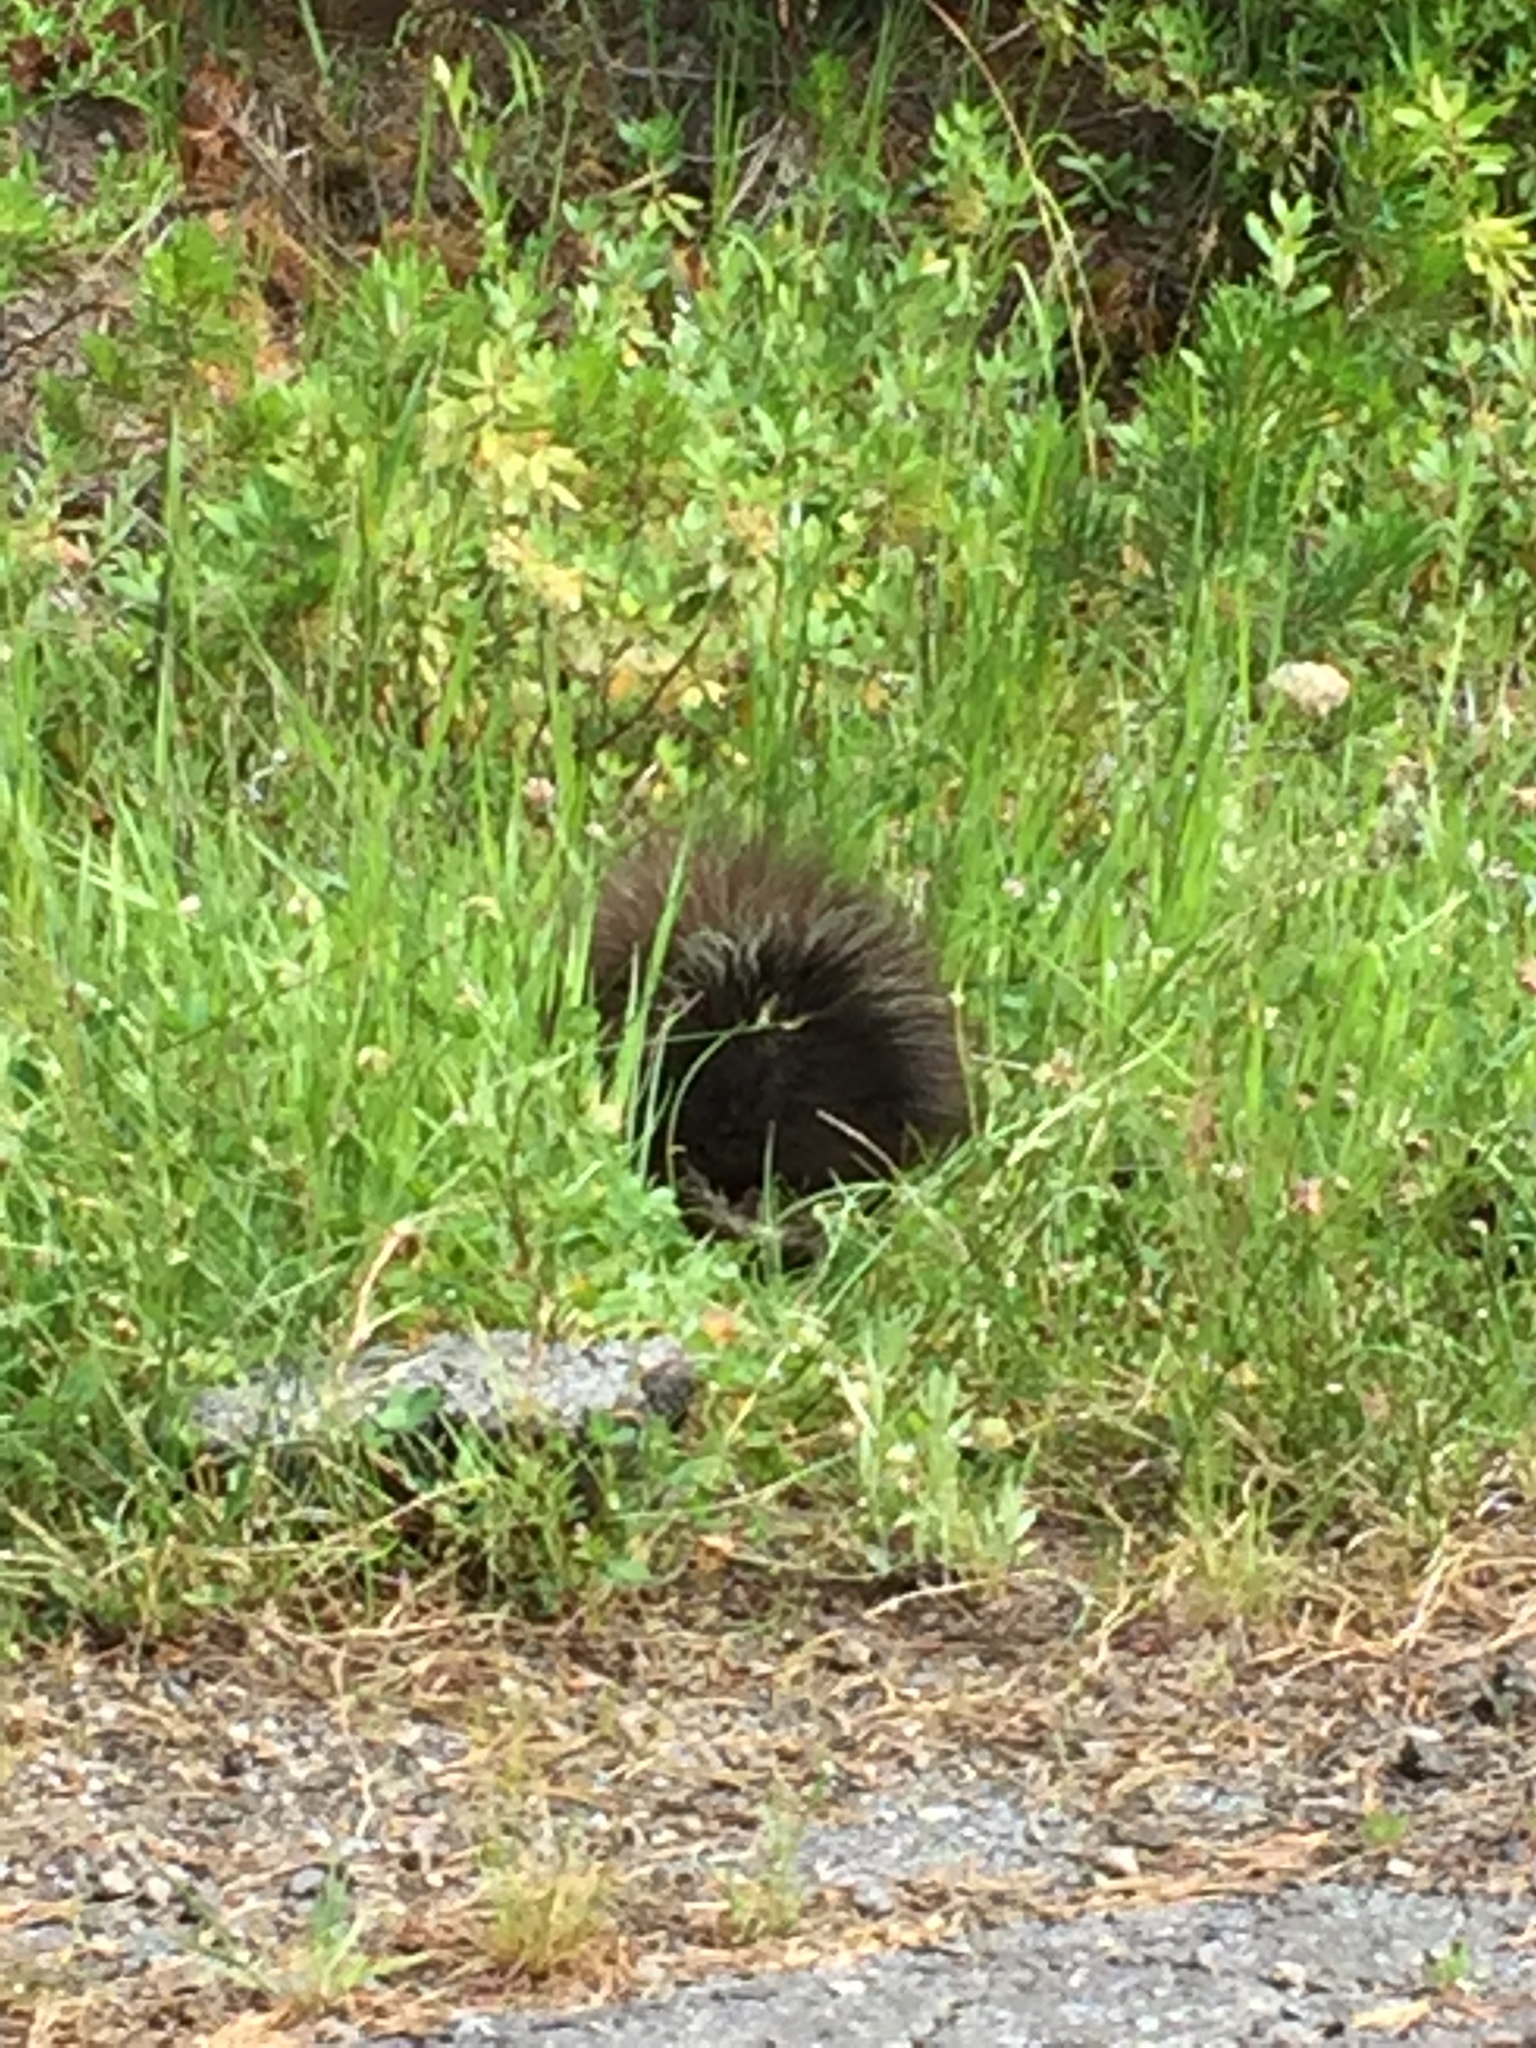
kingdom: Animalia
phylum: Chordata
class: Mammalia
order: Rodentia
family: Erethizontidae
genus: Erethizon
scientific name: Erethizon dorsatus
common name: North american porcupine
